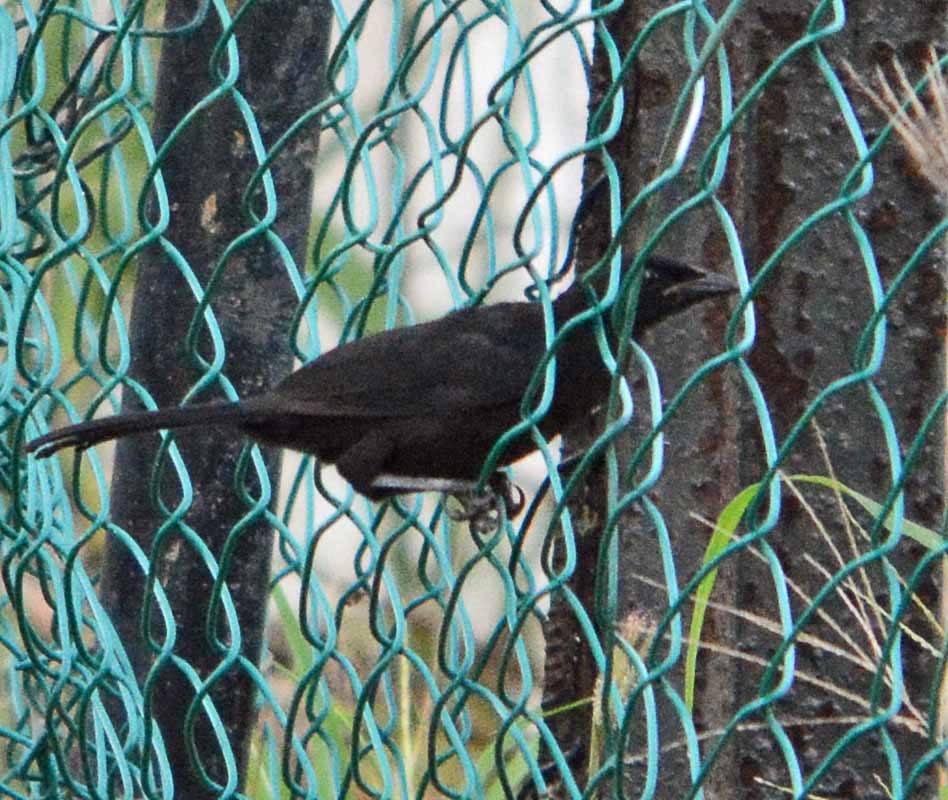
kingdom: Animalia
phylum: Chordata
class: Aves
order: Passeriformes
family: Icteridae
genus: Dives
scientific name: Dives dives
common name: Melodious blackbird
